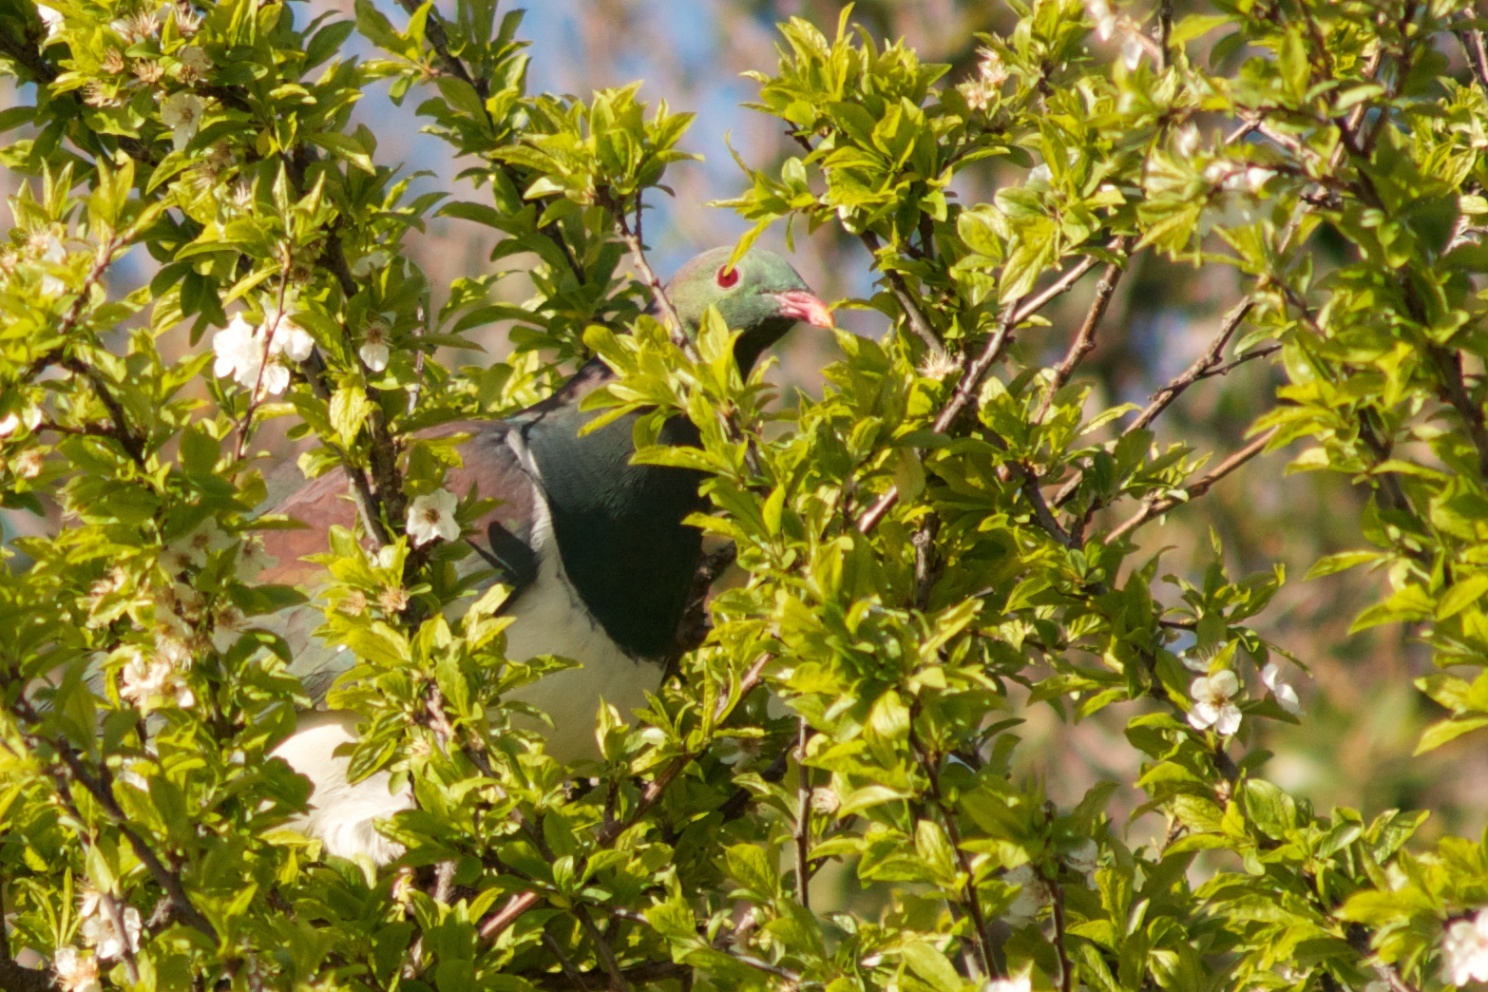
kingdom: Animalia
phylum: Chordata
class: Aves
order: Columbiformes
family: Columbidae
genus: Hemiphaga
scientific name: Hemiphaga novaeseelandiae
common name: New zealand pigeon
